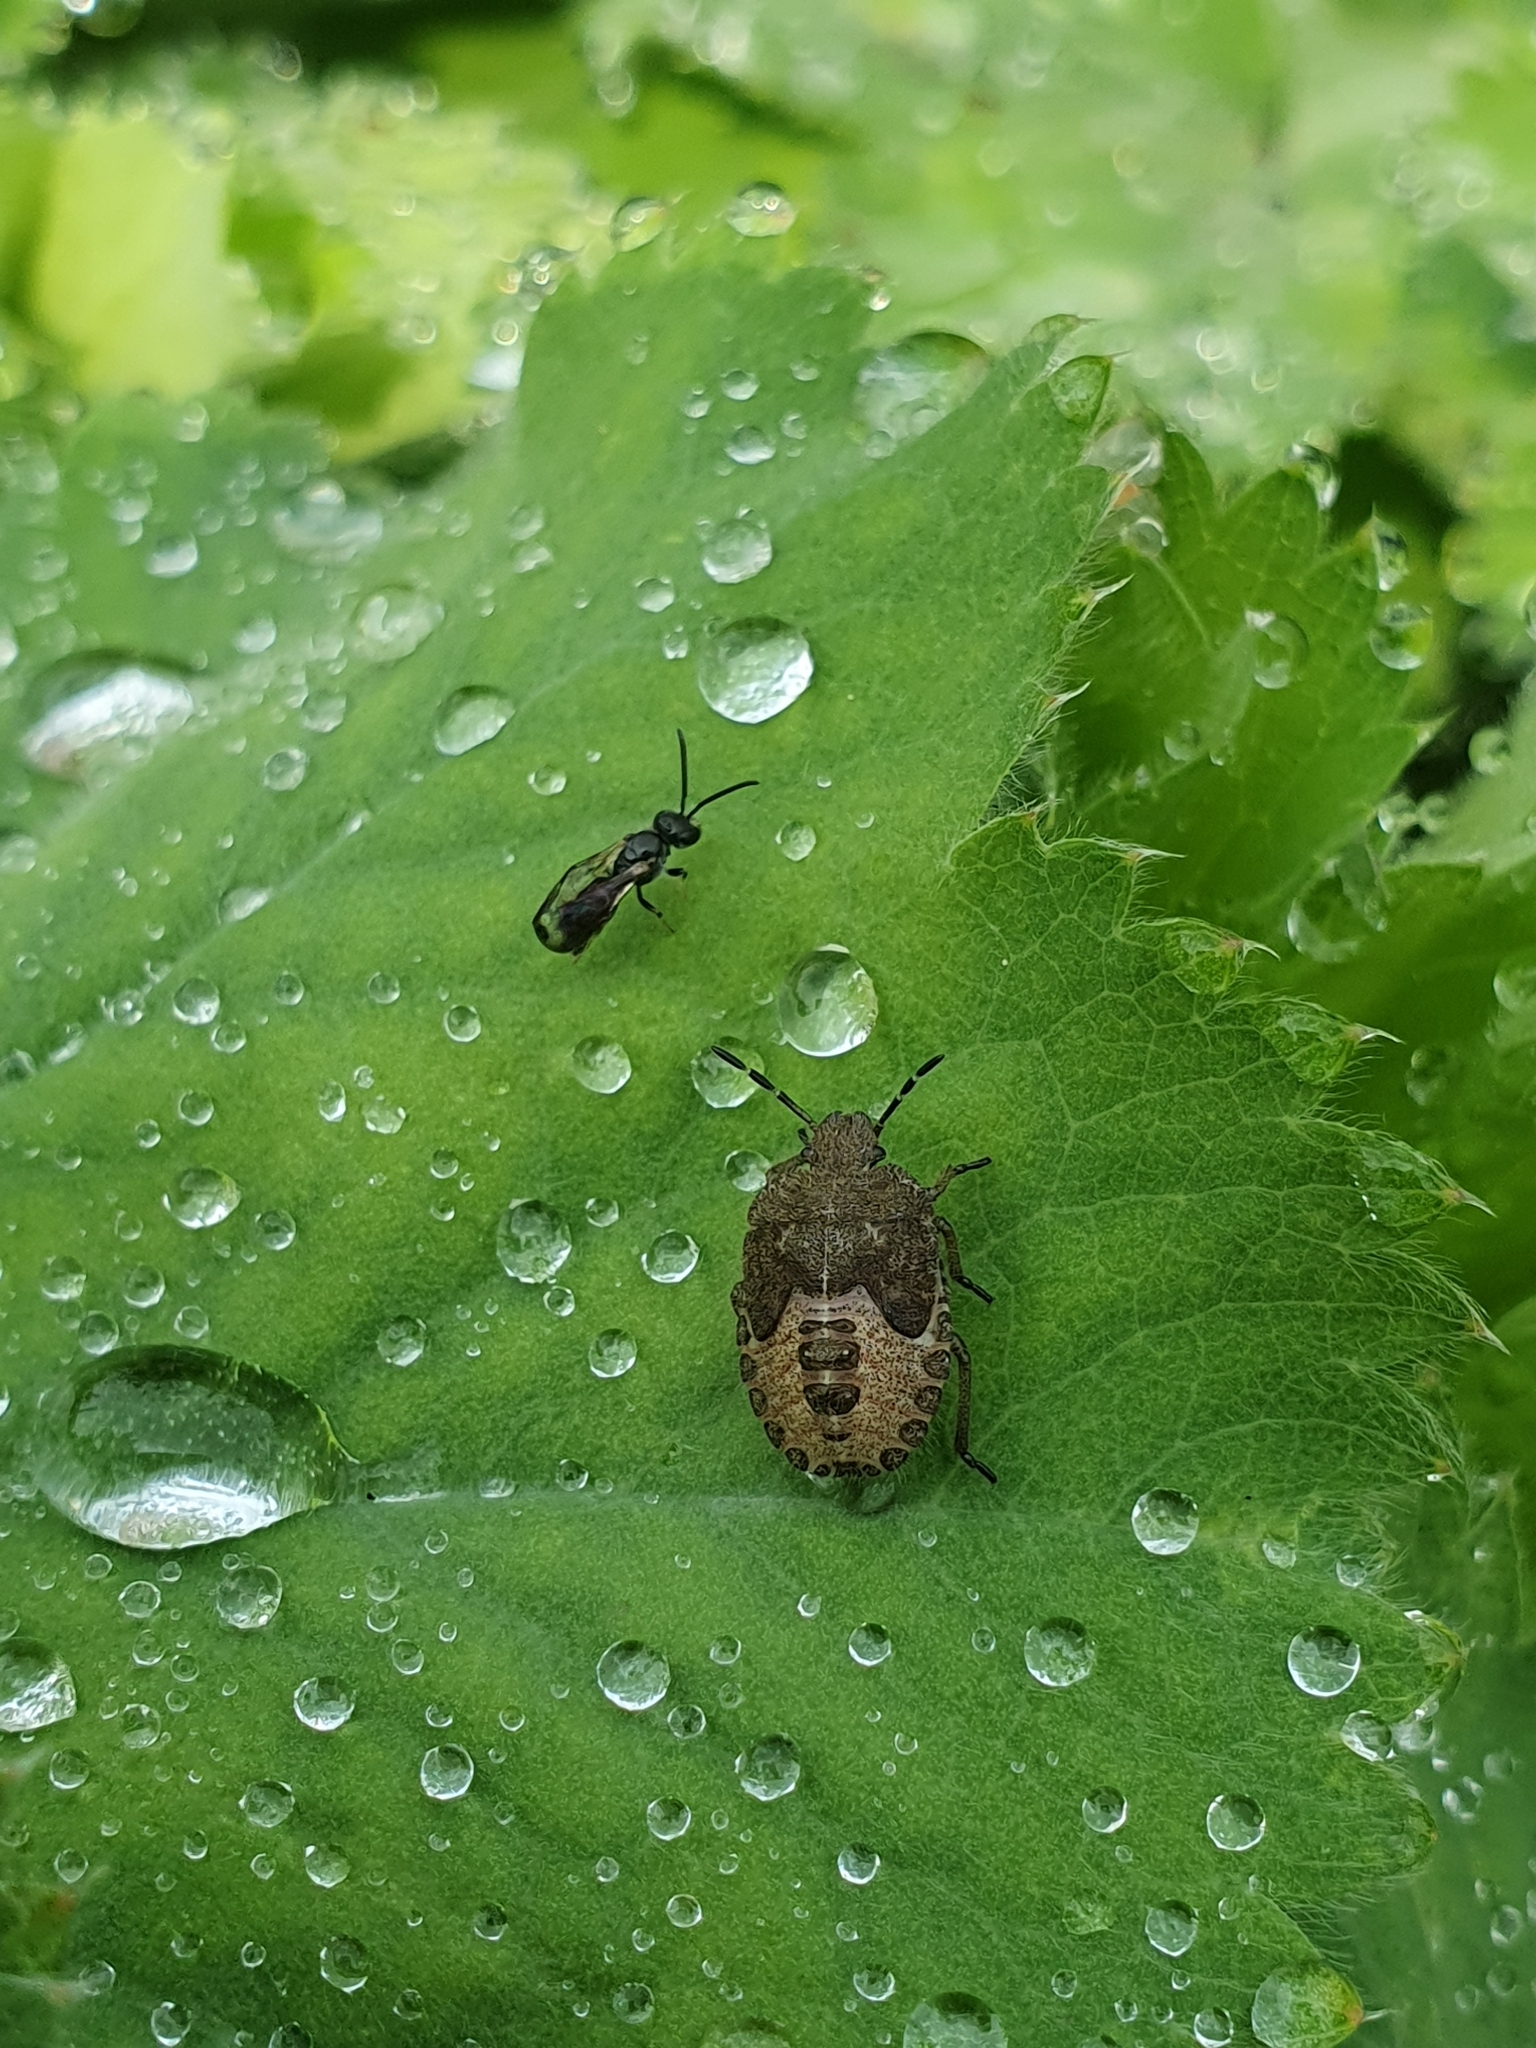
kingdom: Animalia
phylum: Arthropoda
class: Insecta
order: Hemiptera
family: Pentatomidae
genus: Dolycoris
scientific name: Dolycoris baccarum
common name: Sloe bug
